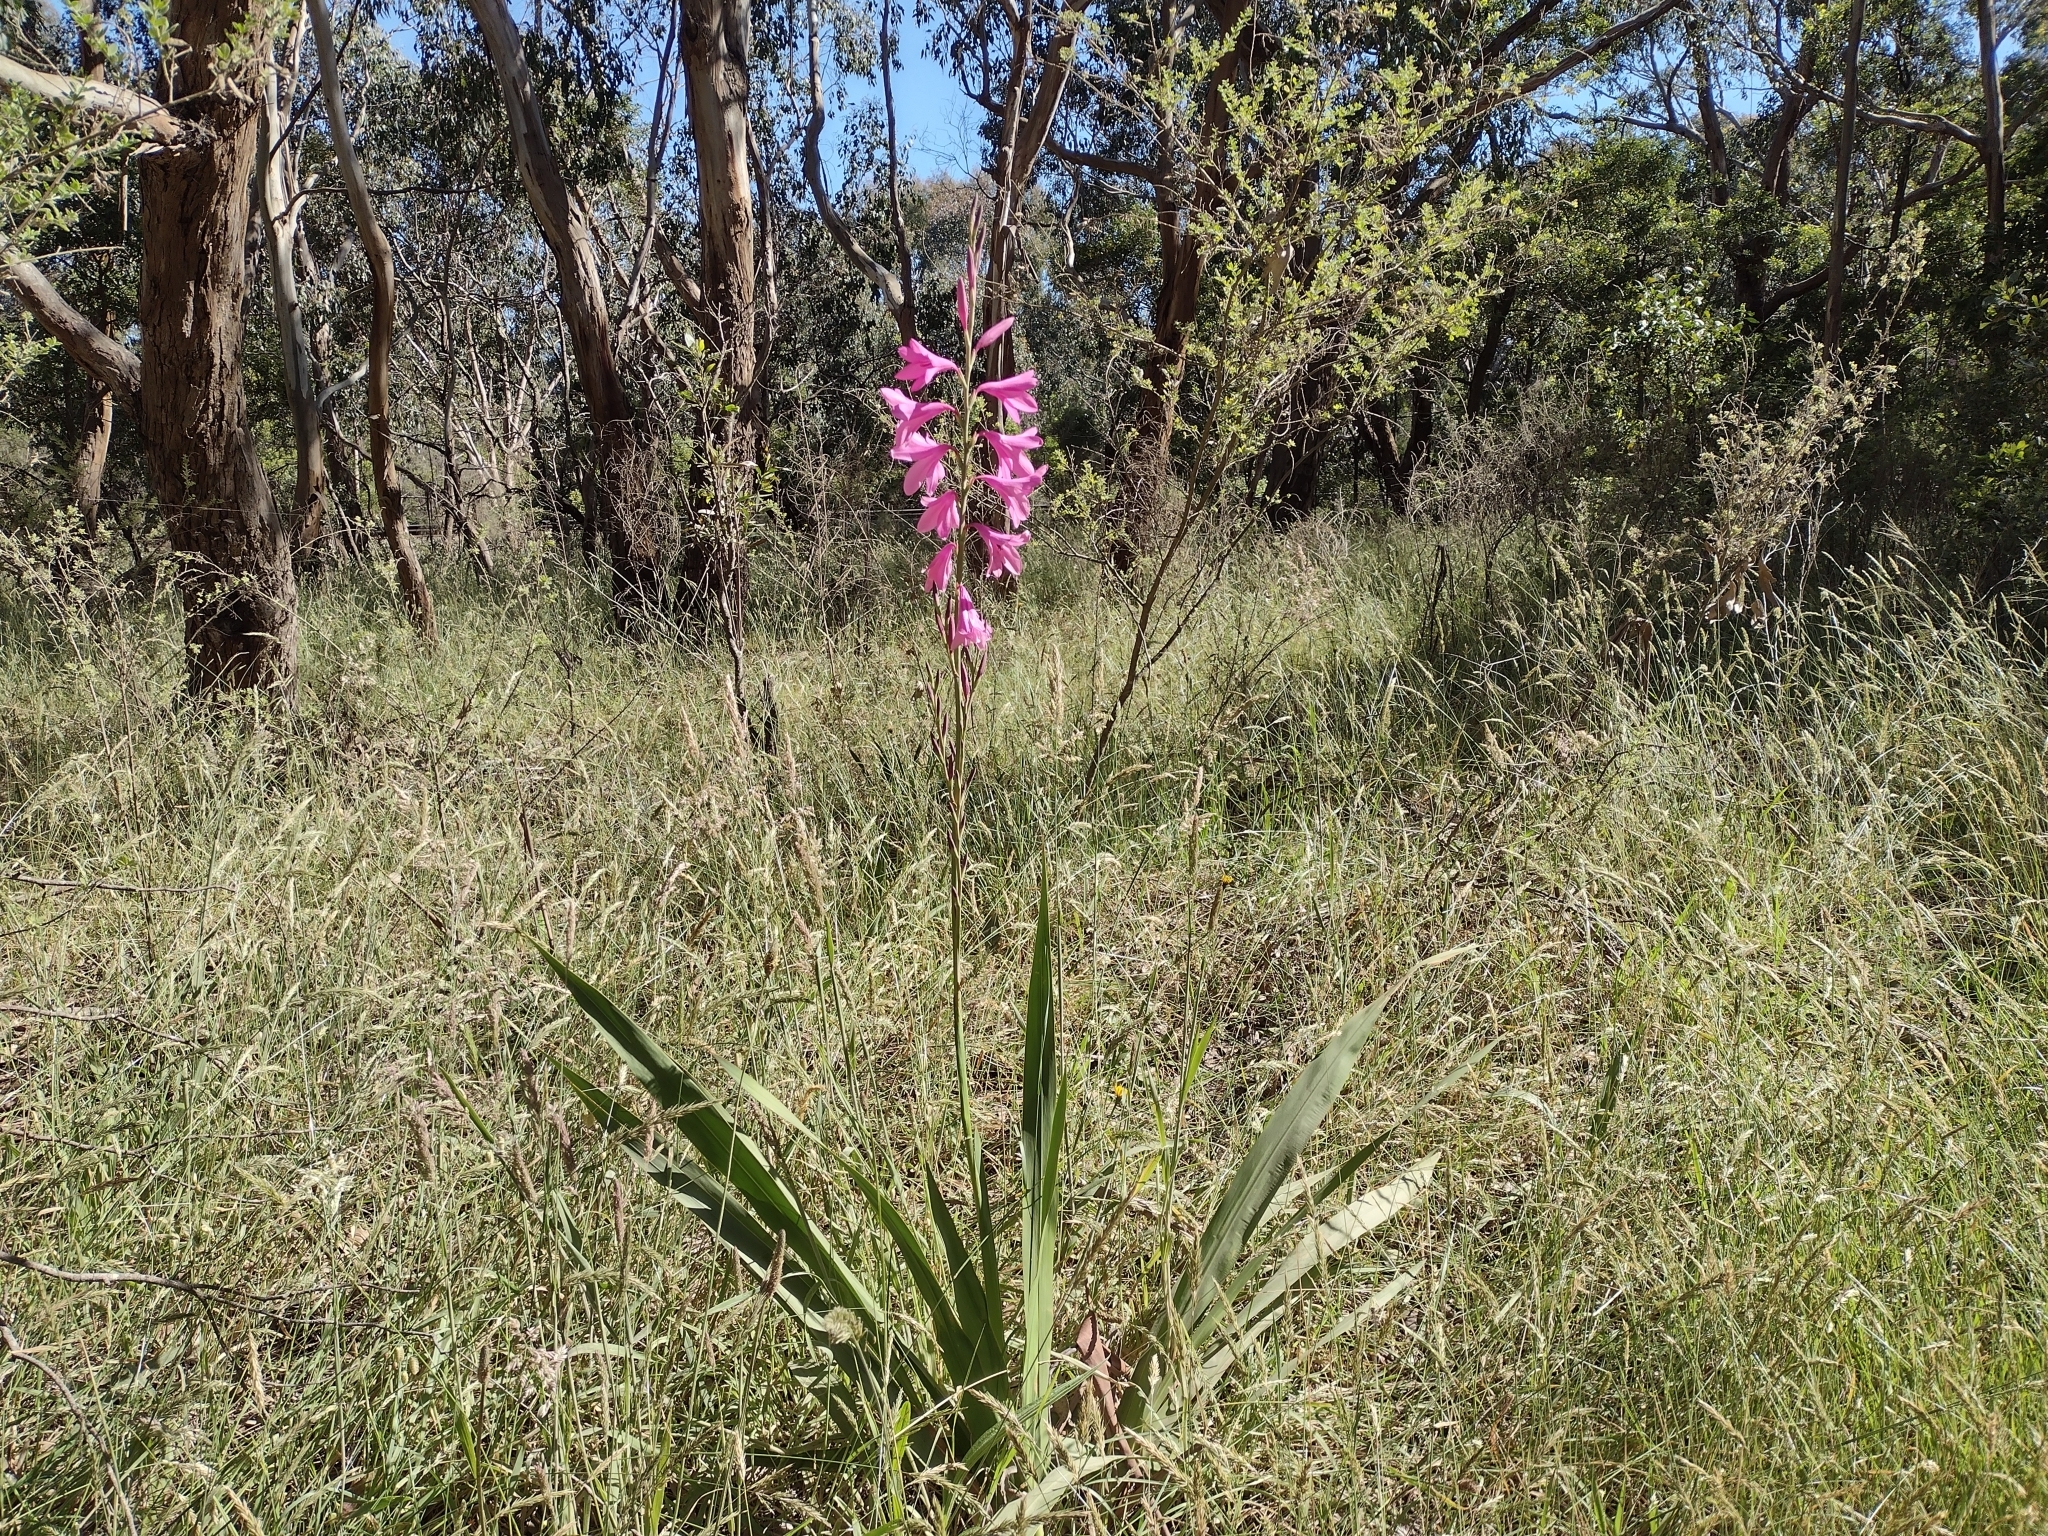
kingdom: Plantae
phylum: Tracheophyta
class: Liliopsida
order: Asparagales
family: Iridaceae
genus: Watsonia
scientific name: Watsonia borbonica
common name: Bugle-lily
